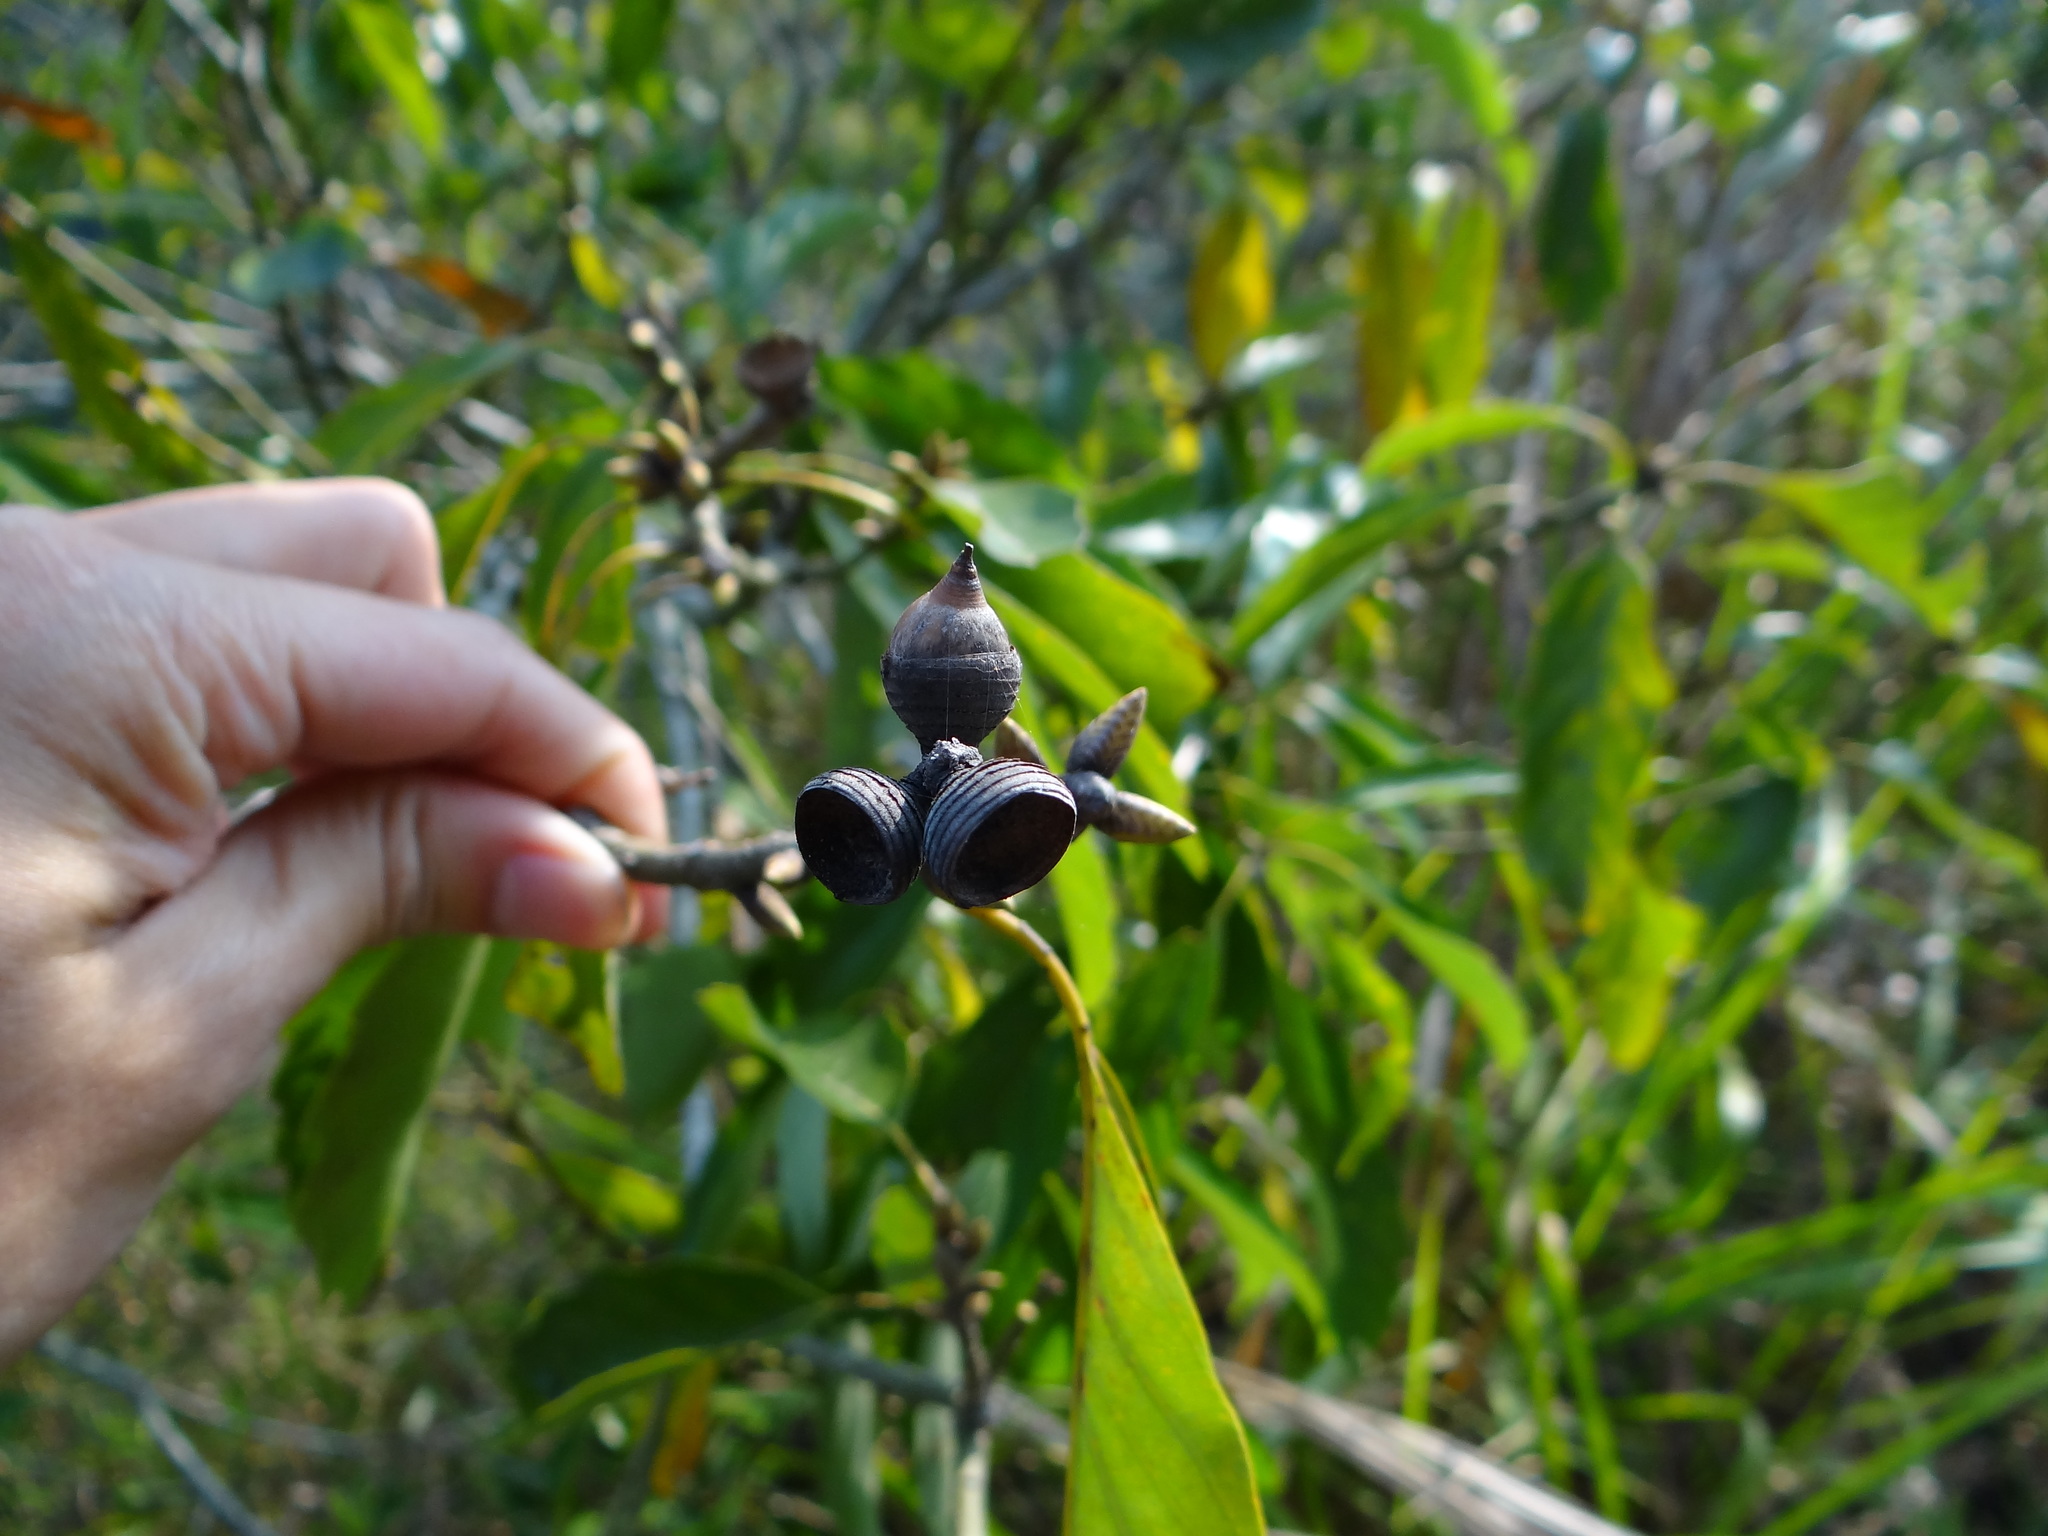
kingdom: Plantae
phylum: Tracheophyta
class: Magnoliopsida
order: Fagales
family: Fagaceae
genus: Quercus
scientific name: Quercus glauca
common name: Ring-cup oak
